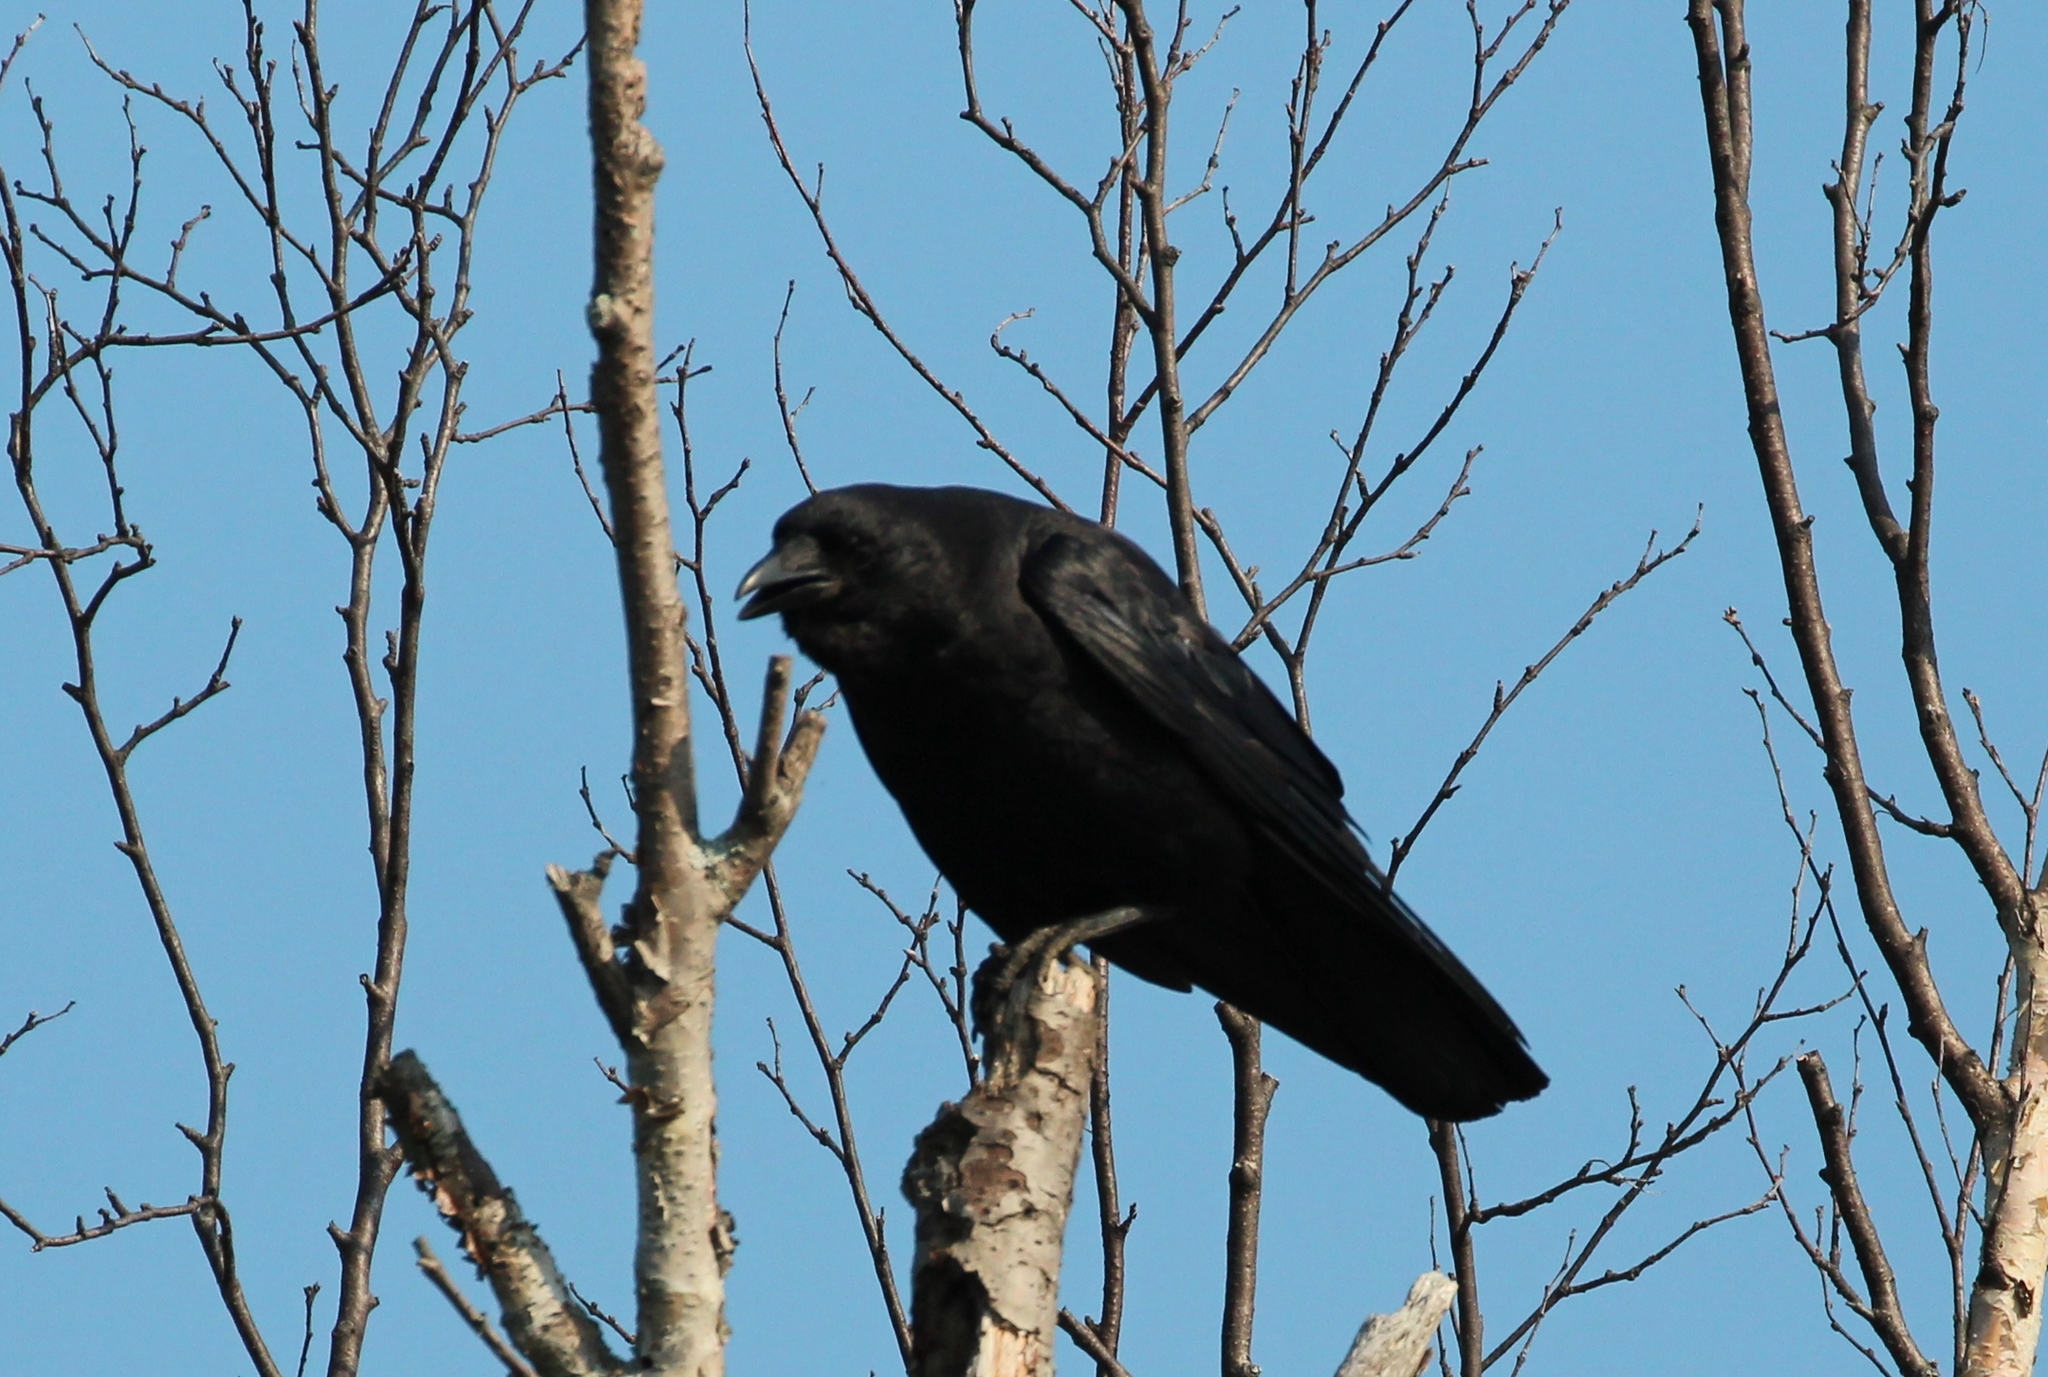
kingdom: Animalia
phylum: Chordata
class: Aves
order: Passeriformes
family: Corvidae
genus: Corvus
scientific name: Corvus brachyrhynchos
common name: American crow
